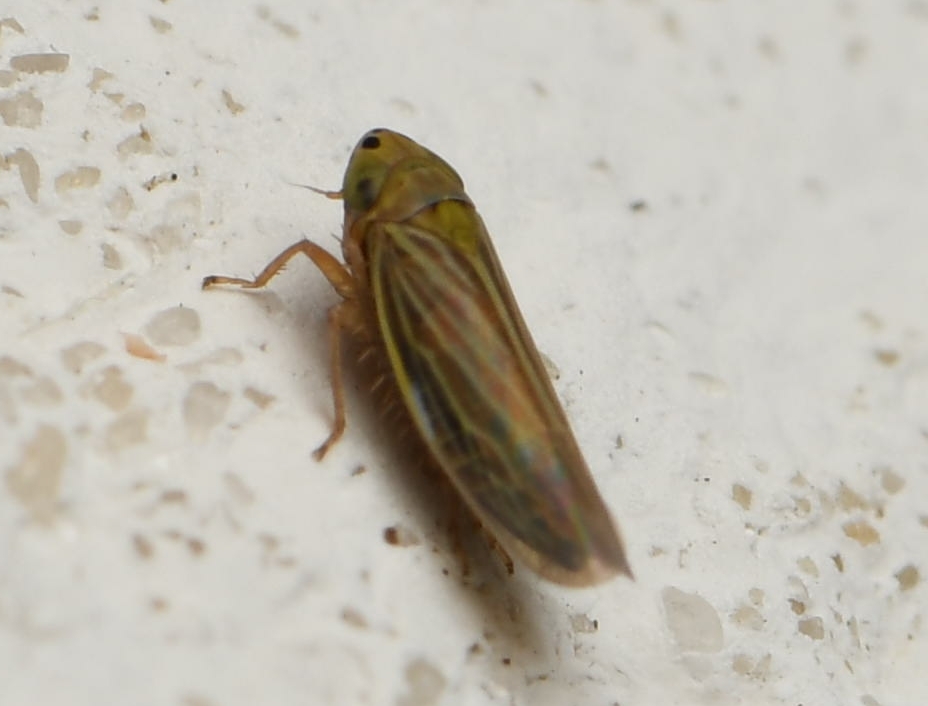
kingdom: Animalia
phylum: Arthropoda
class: Insecta
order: Hemiptera
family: Cicadellidae
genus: Graminella
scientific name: Graminella cognita
